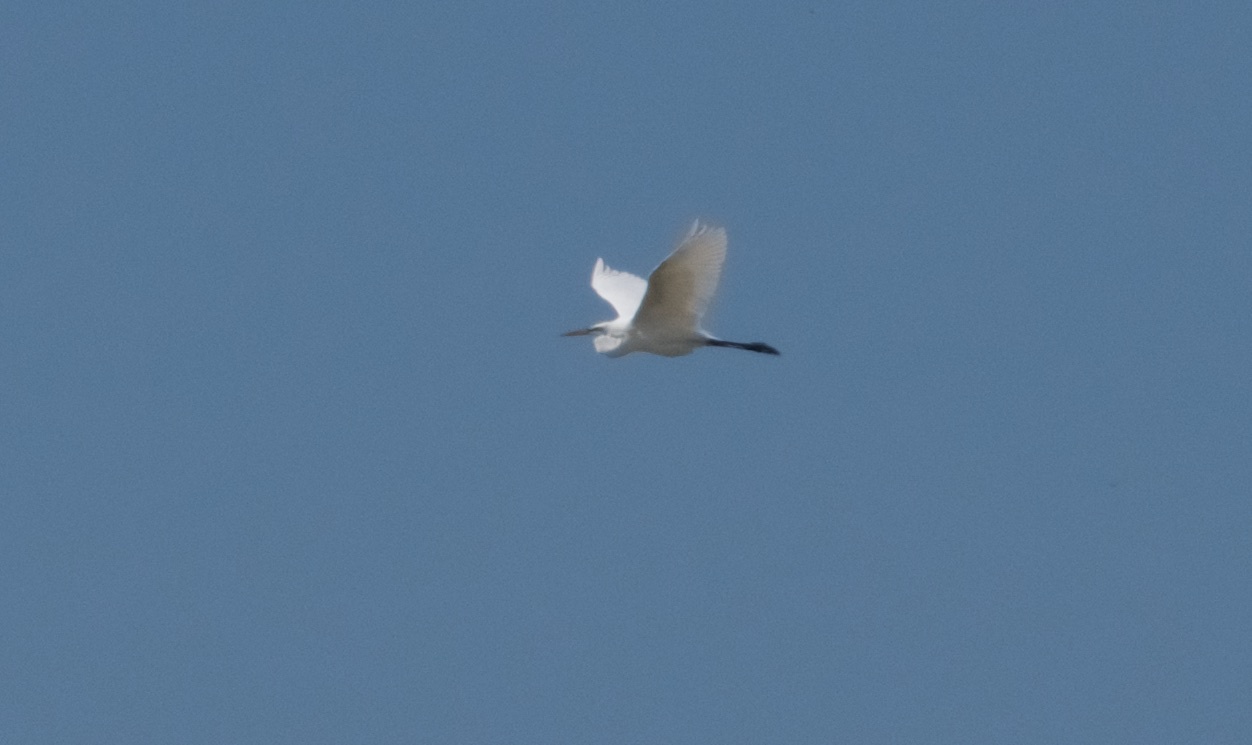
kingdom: Animalia
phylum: Chordata
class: Aves
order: Pelecaniformes
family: Ardeidae
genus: Ardea
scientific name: Ardea alba
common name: Great egret
